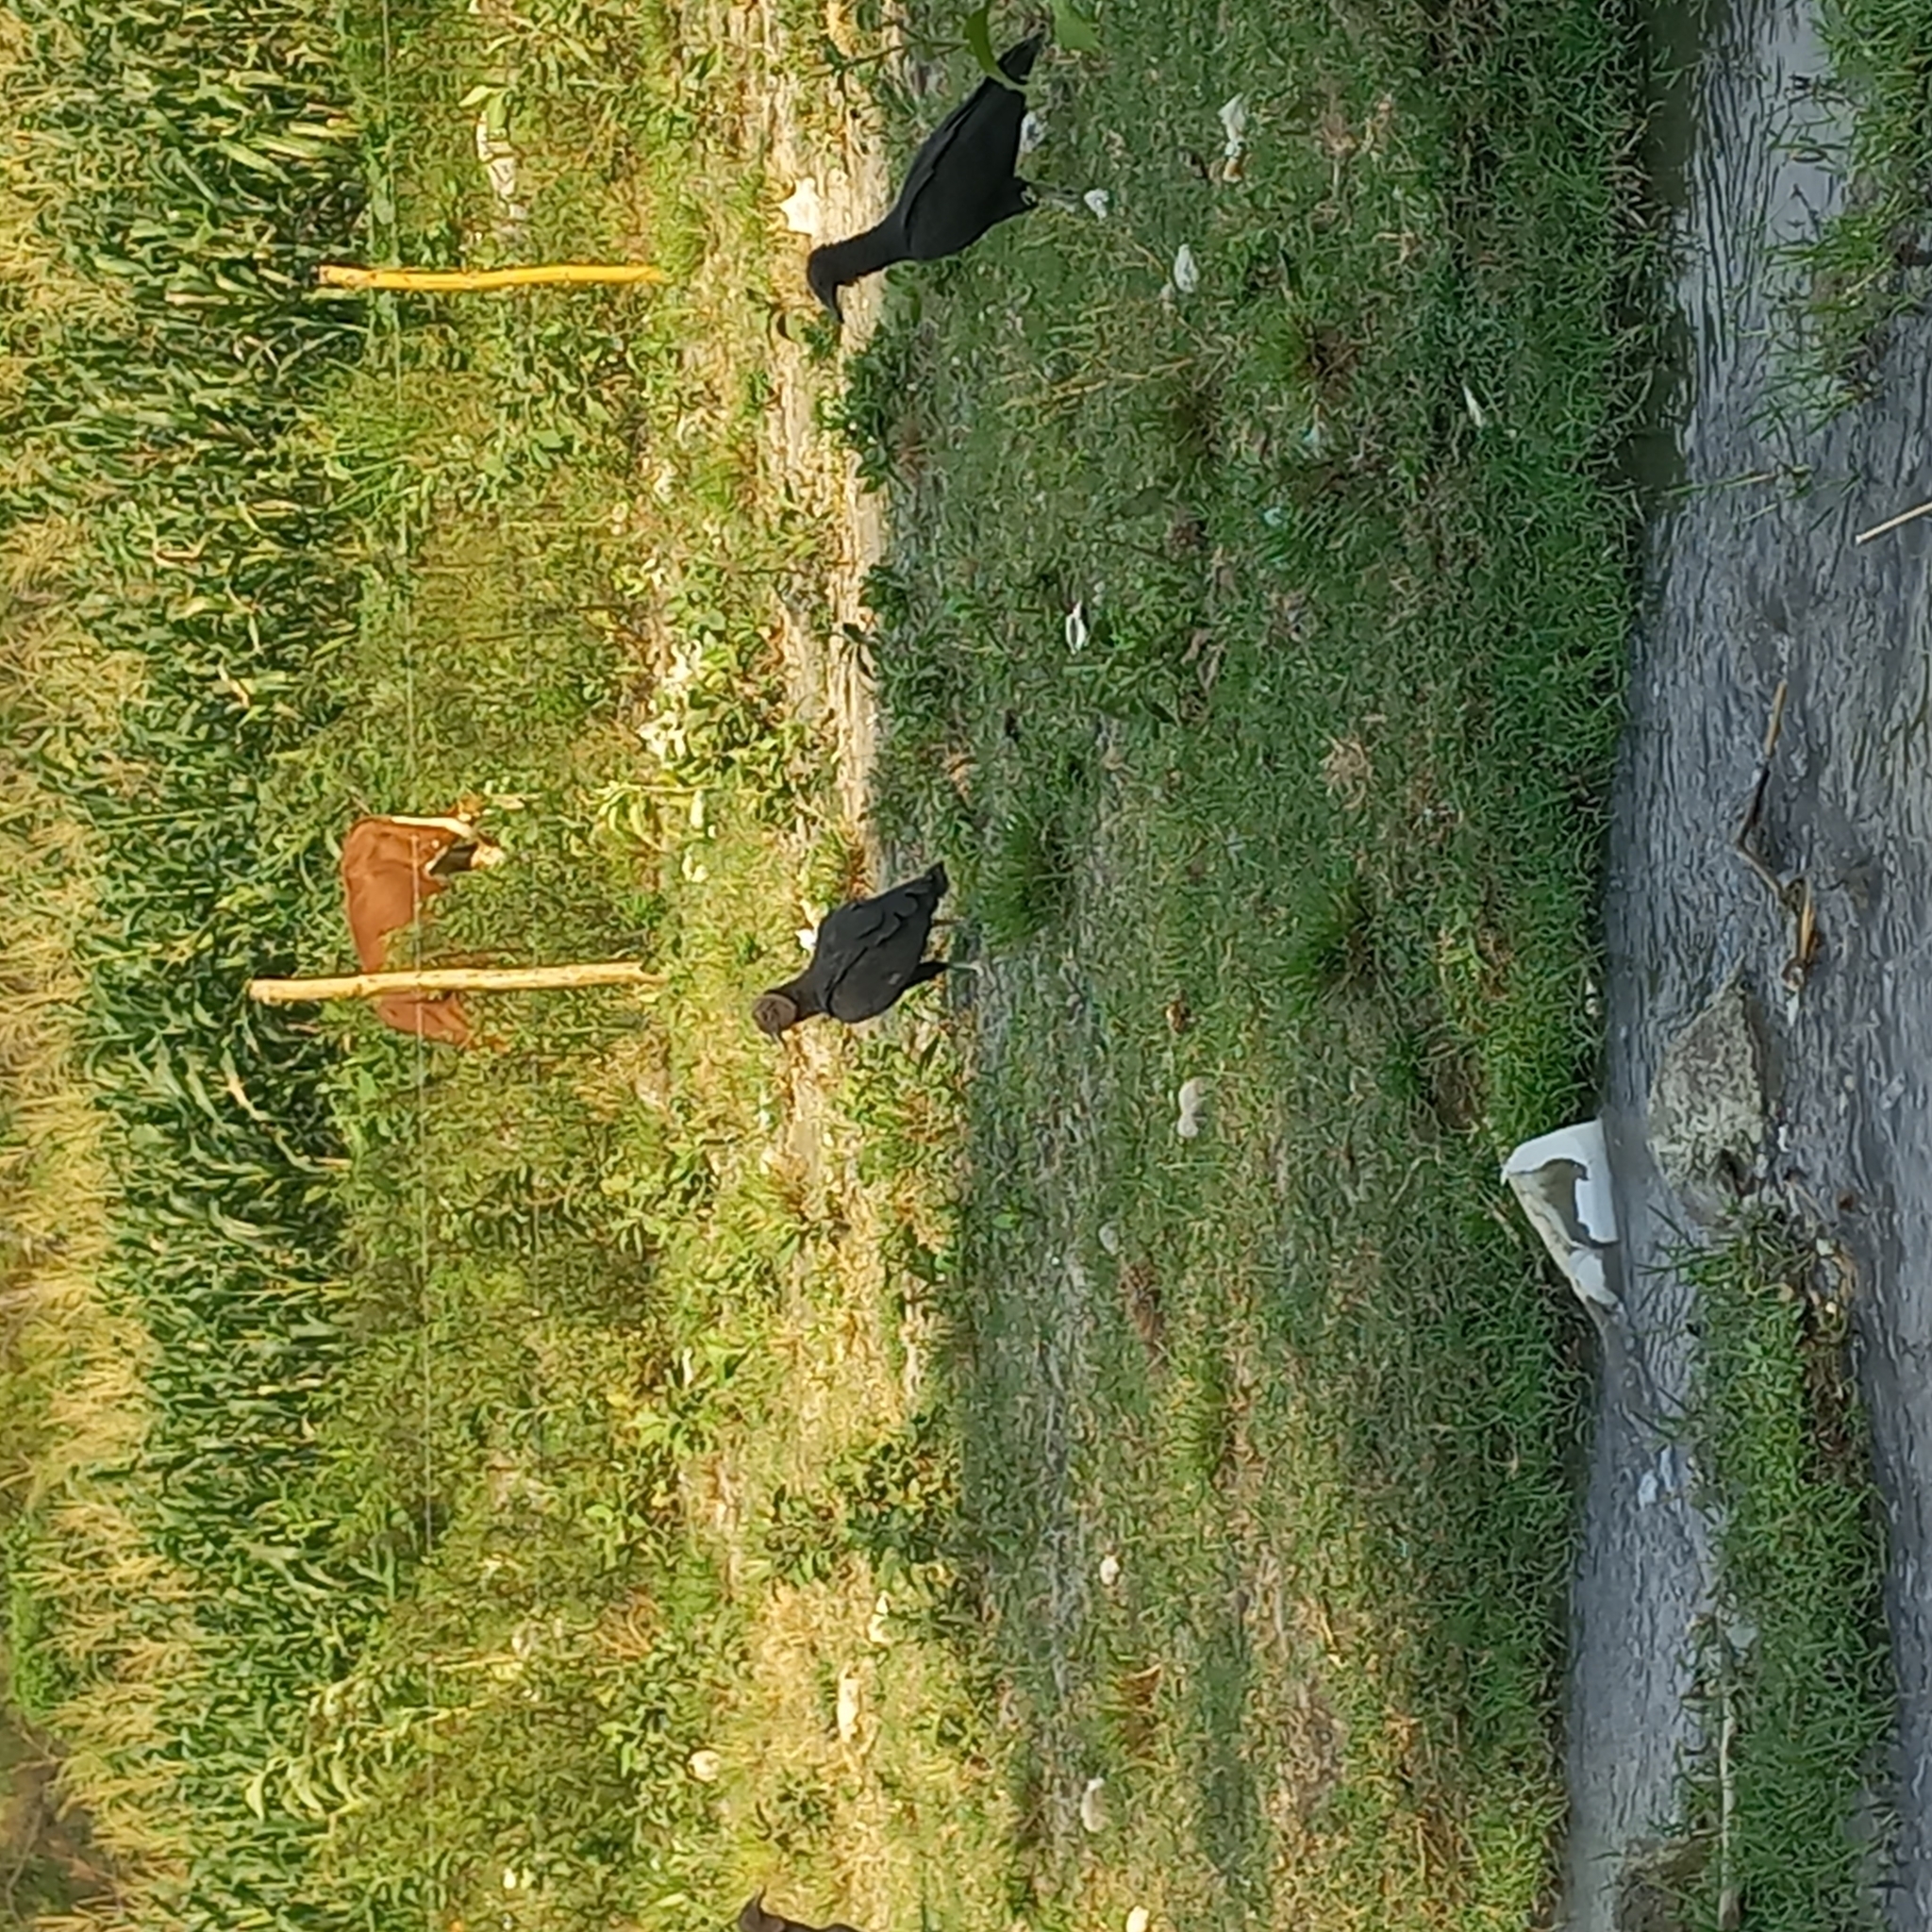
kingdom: Animalia
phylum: Chordata
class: Aves
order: Accipitriformes
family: Cathartidae
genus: Coragyps
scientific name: Coragyps atratus
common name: Black vulture
